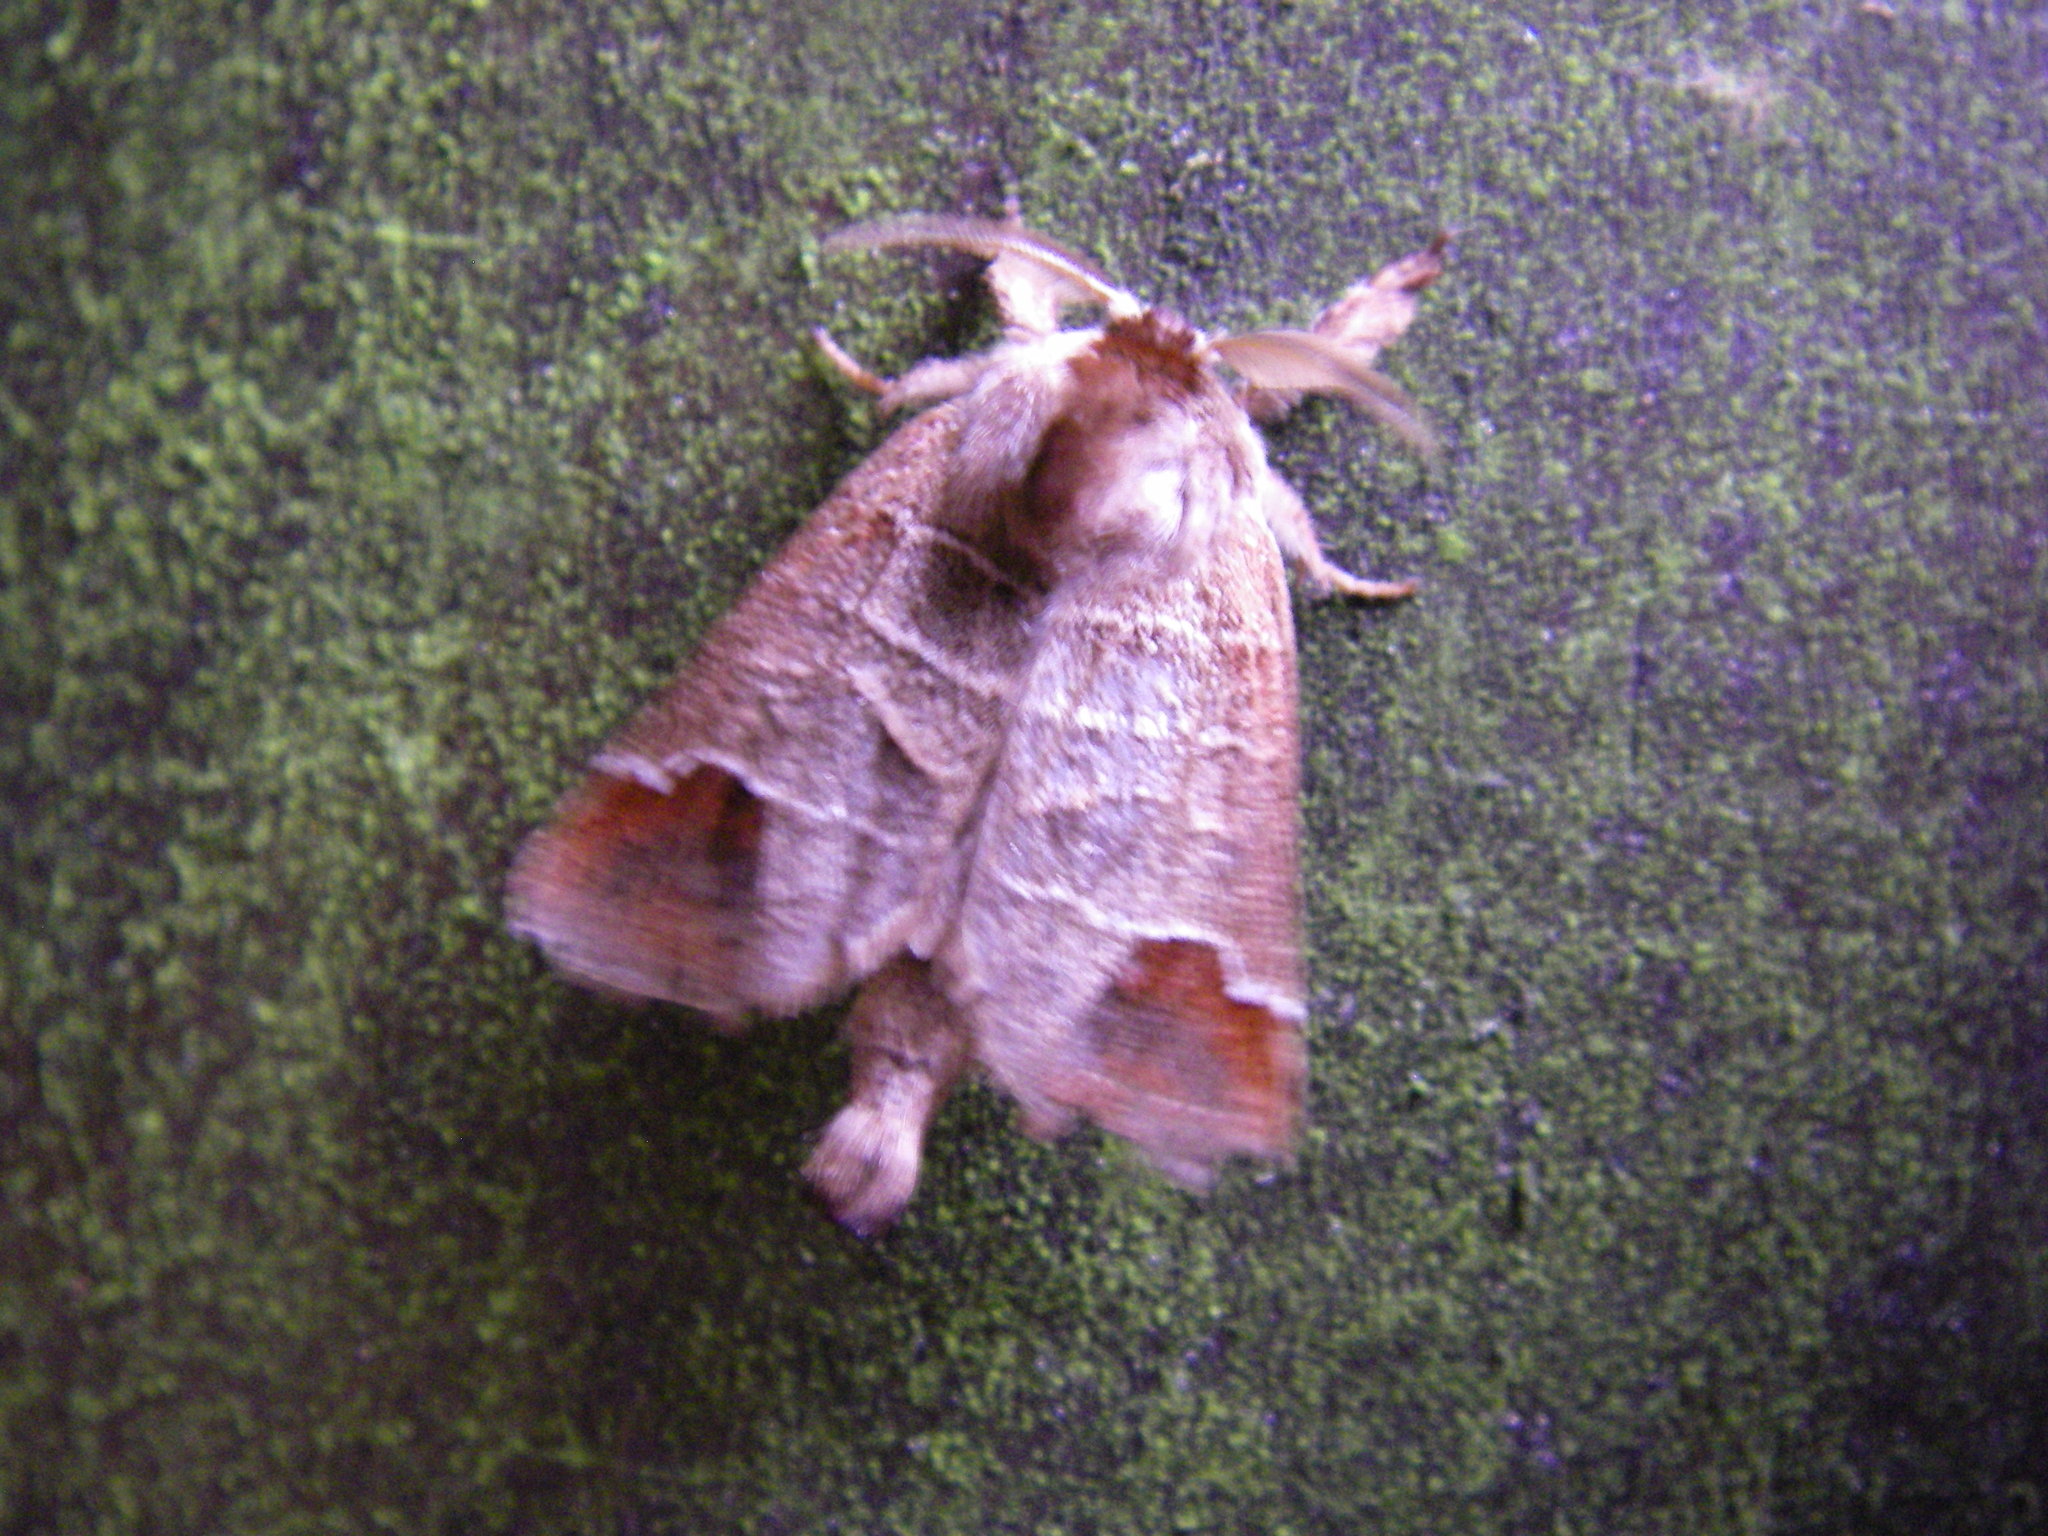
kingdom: Animalia
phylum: Arthropoda
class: Insecta
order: Lepidoptera
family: Notodontidae
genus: Clostera
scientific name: Clostera curtula
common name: Chocolate-tip
